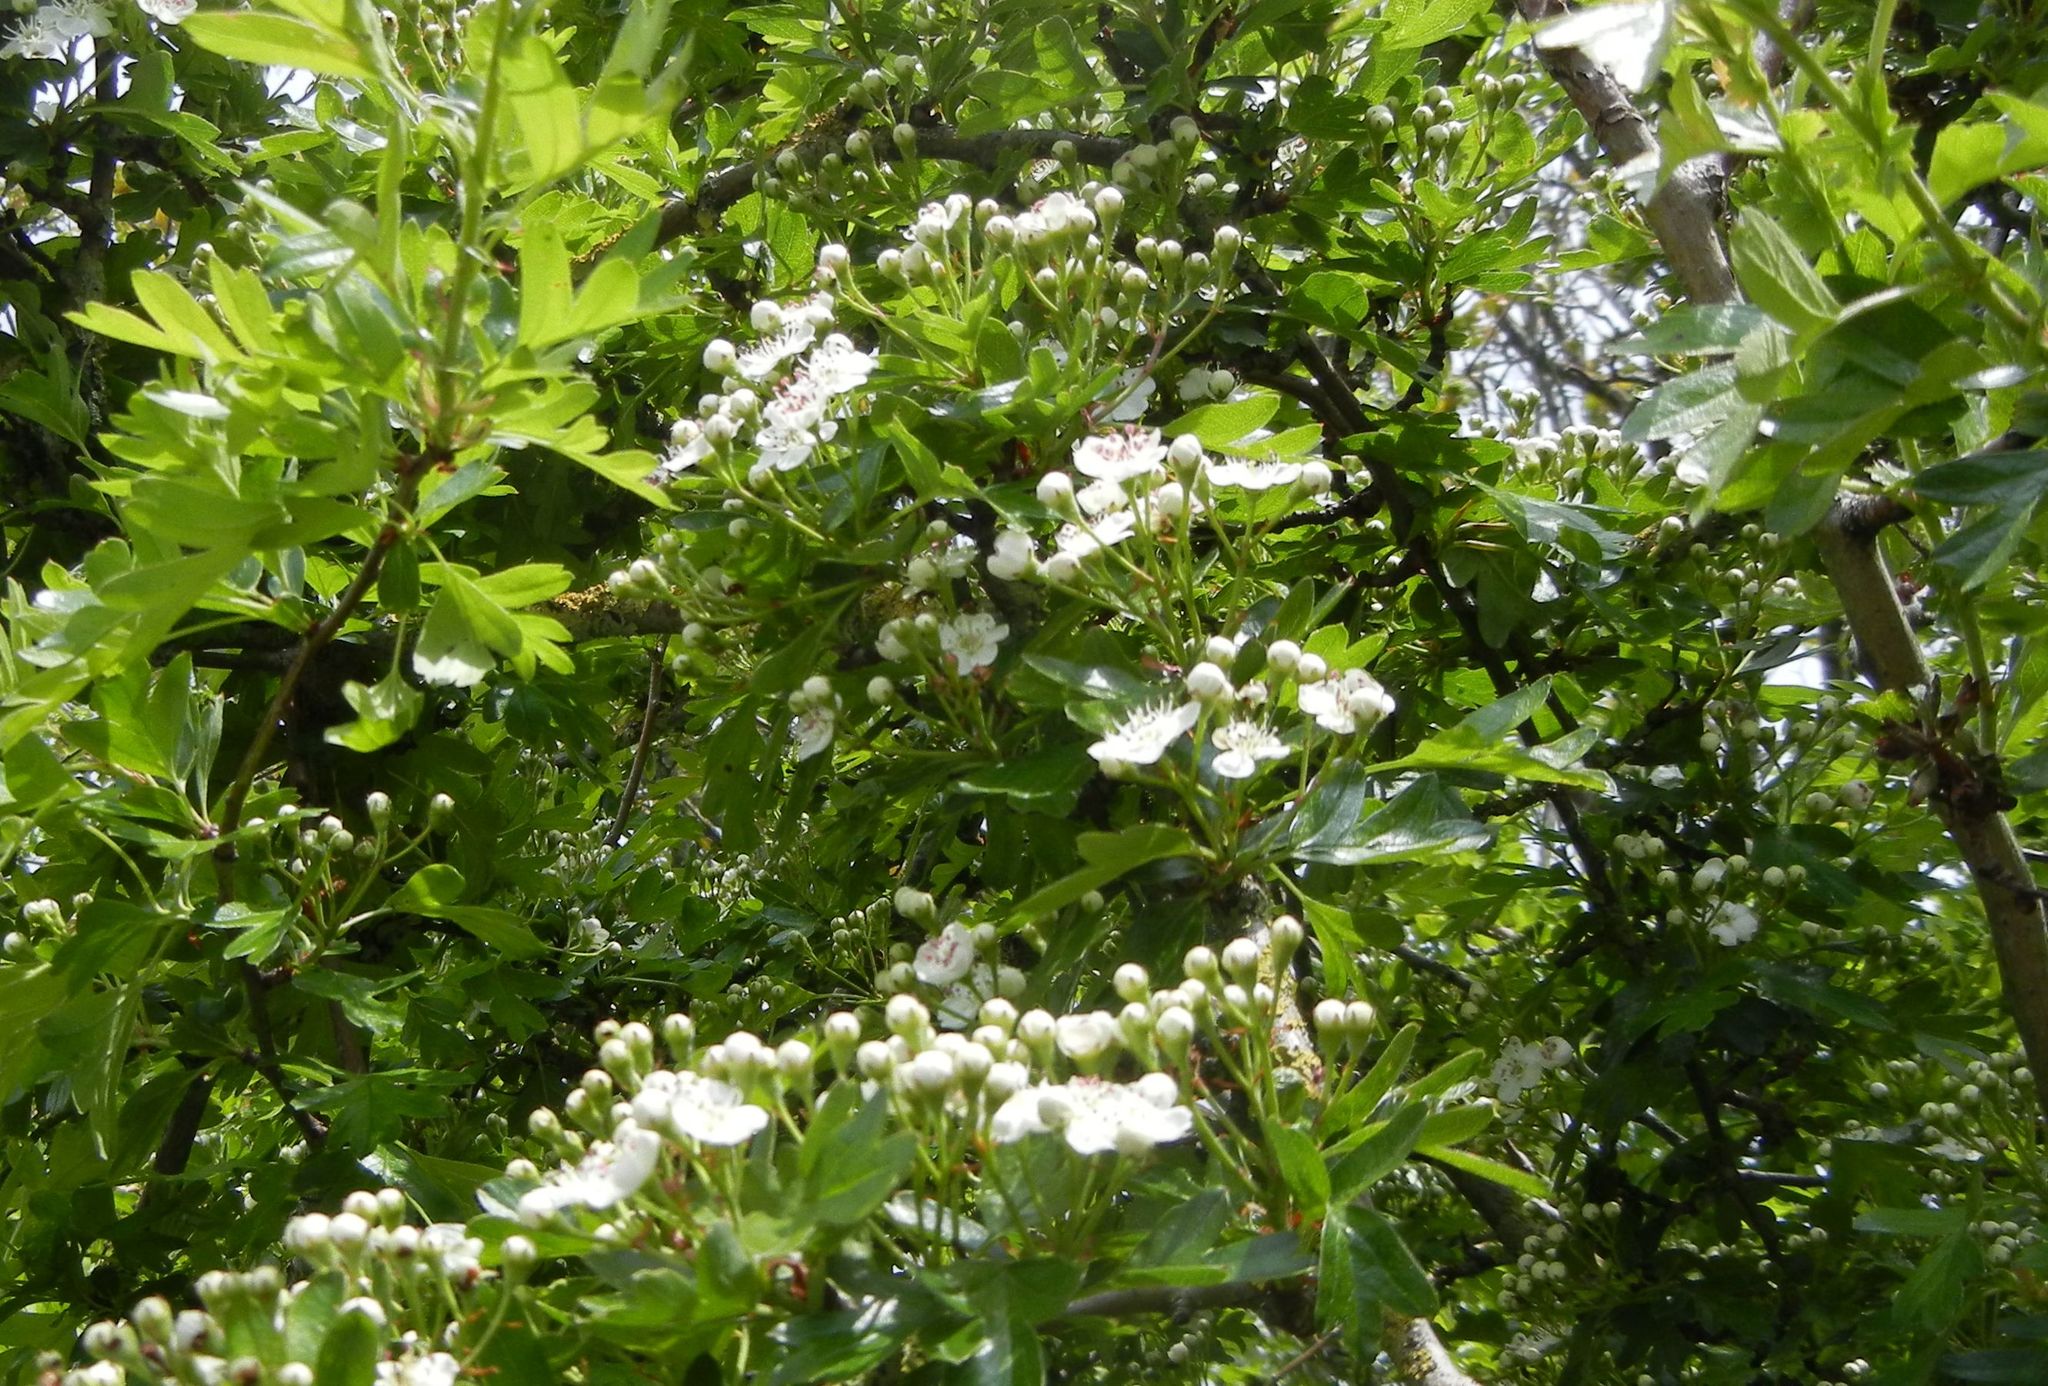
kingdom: Plantae
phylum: Tracheophyta
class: Magnoliopsida
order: Rosales
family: Rosaceae
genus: Crataegus
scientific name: Crataegus monogyna
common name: Hawthorn
